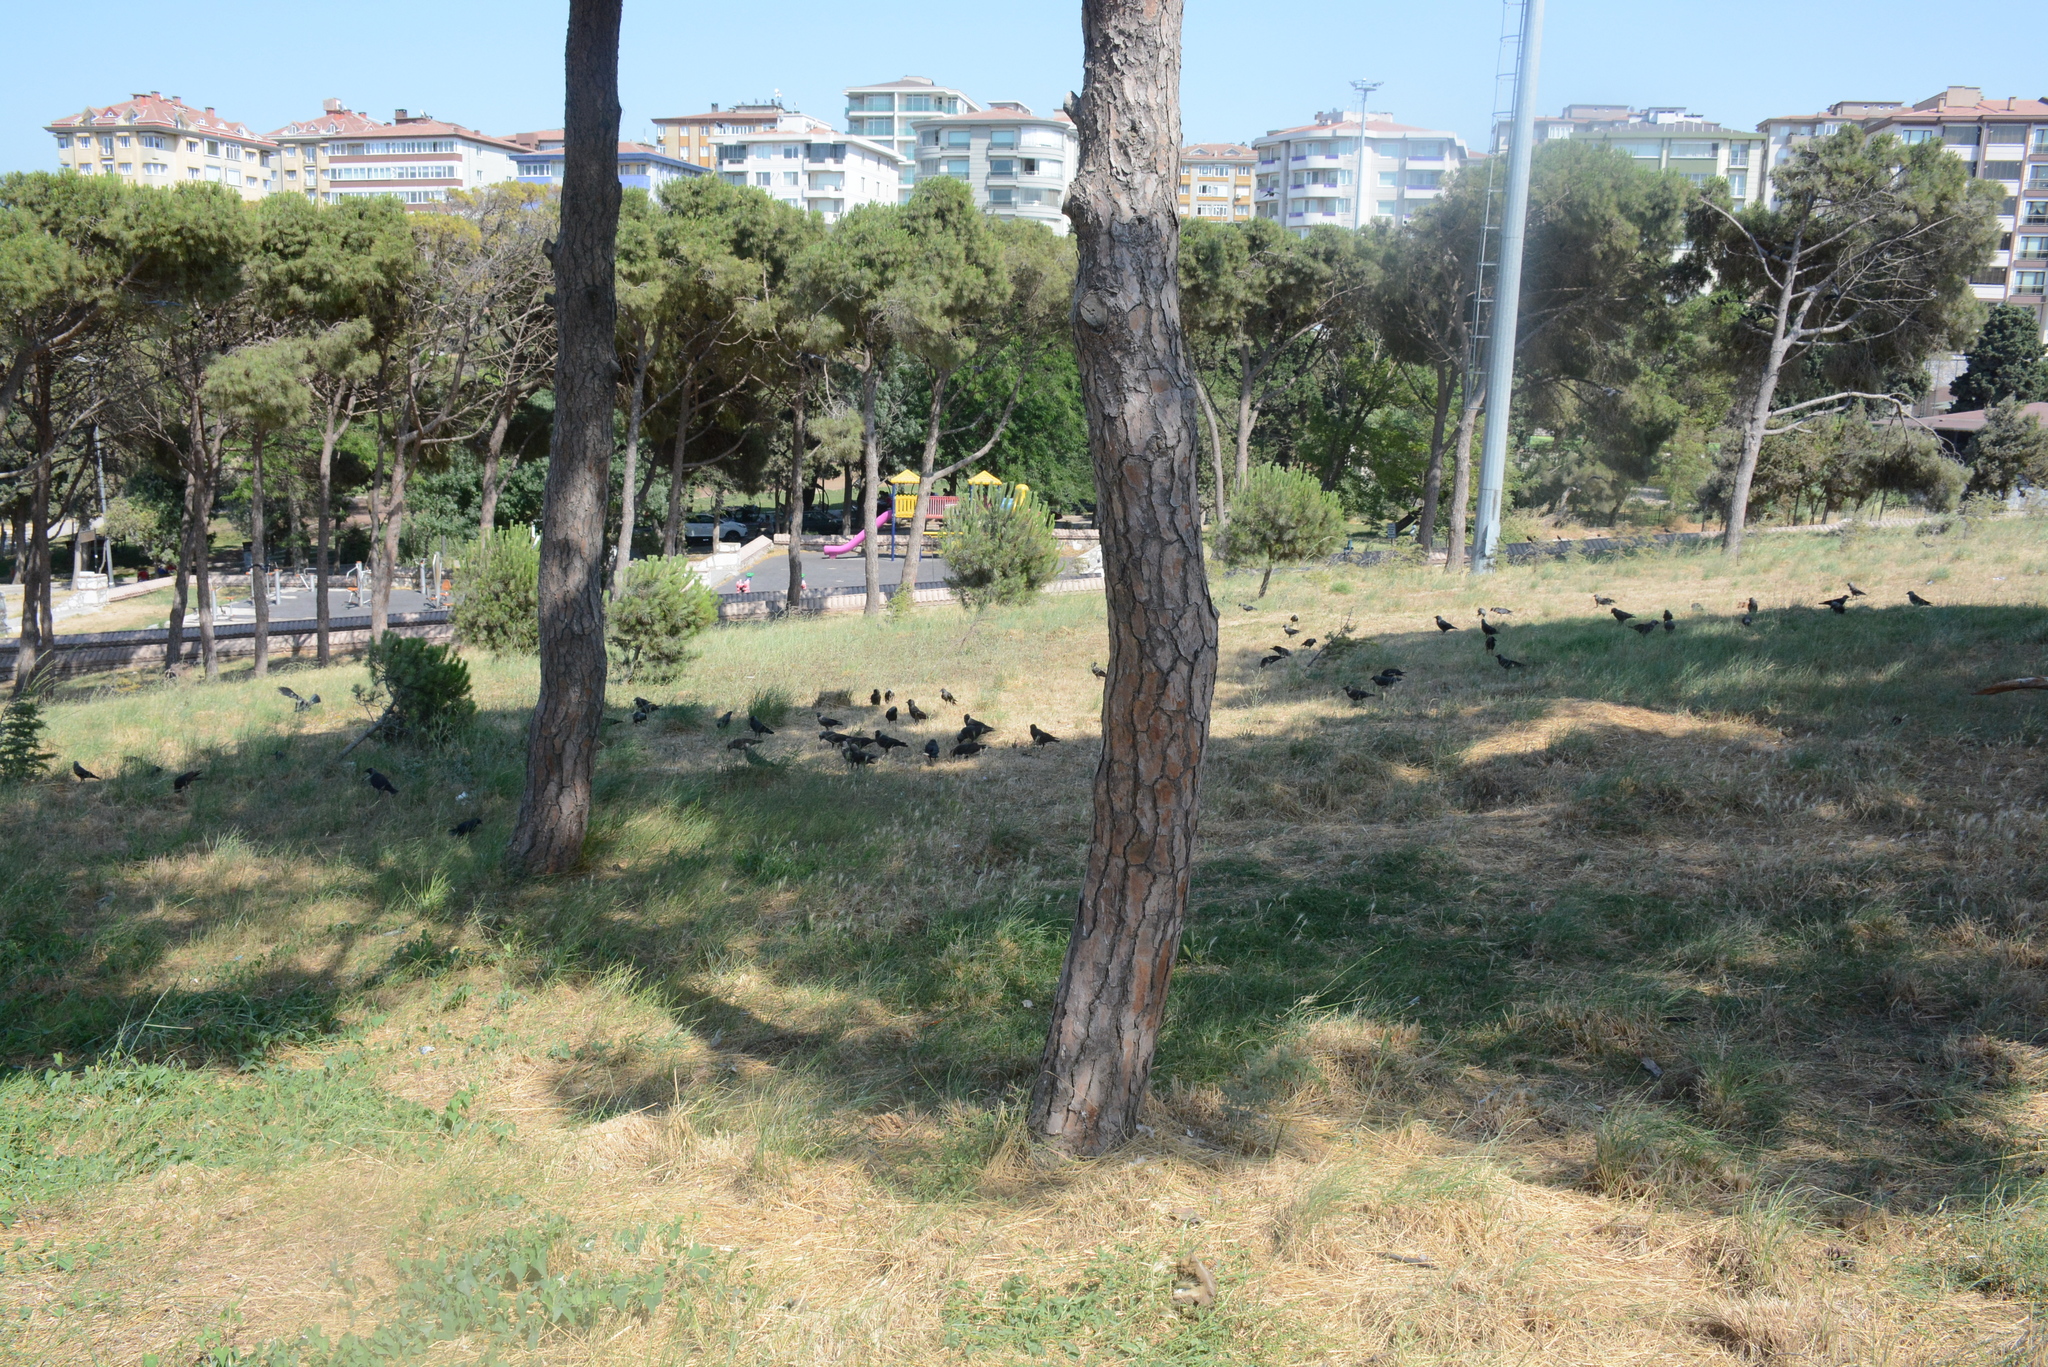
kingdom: Animalia
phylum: Chordata
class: Aves
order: Passeriformes
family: Corvidae
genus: Coloeus
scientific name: Coloeus monedula
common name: Western jackdaw
